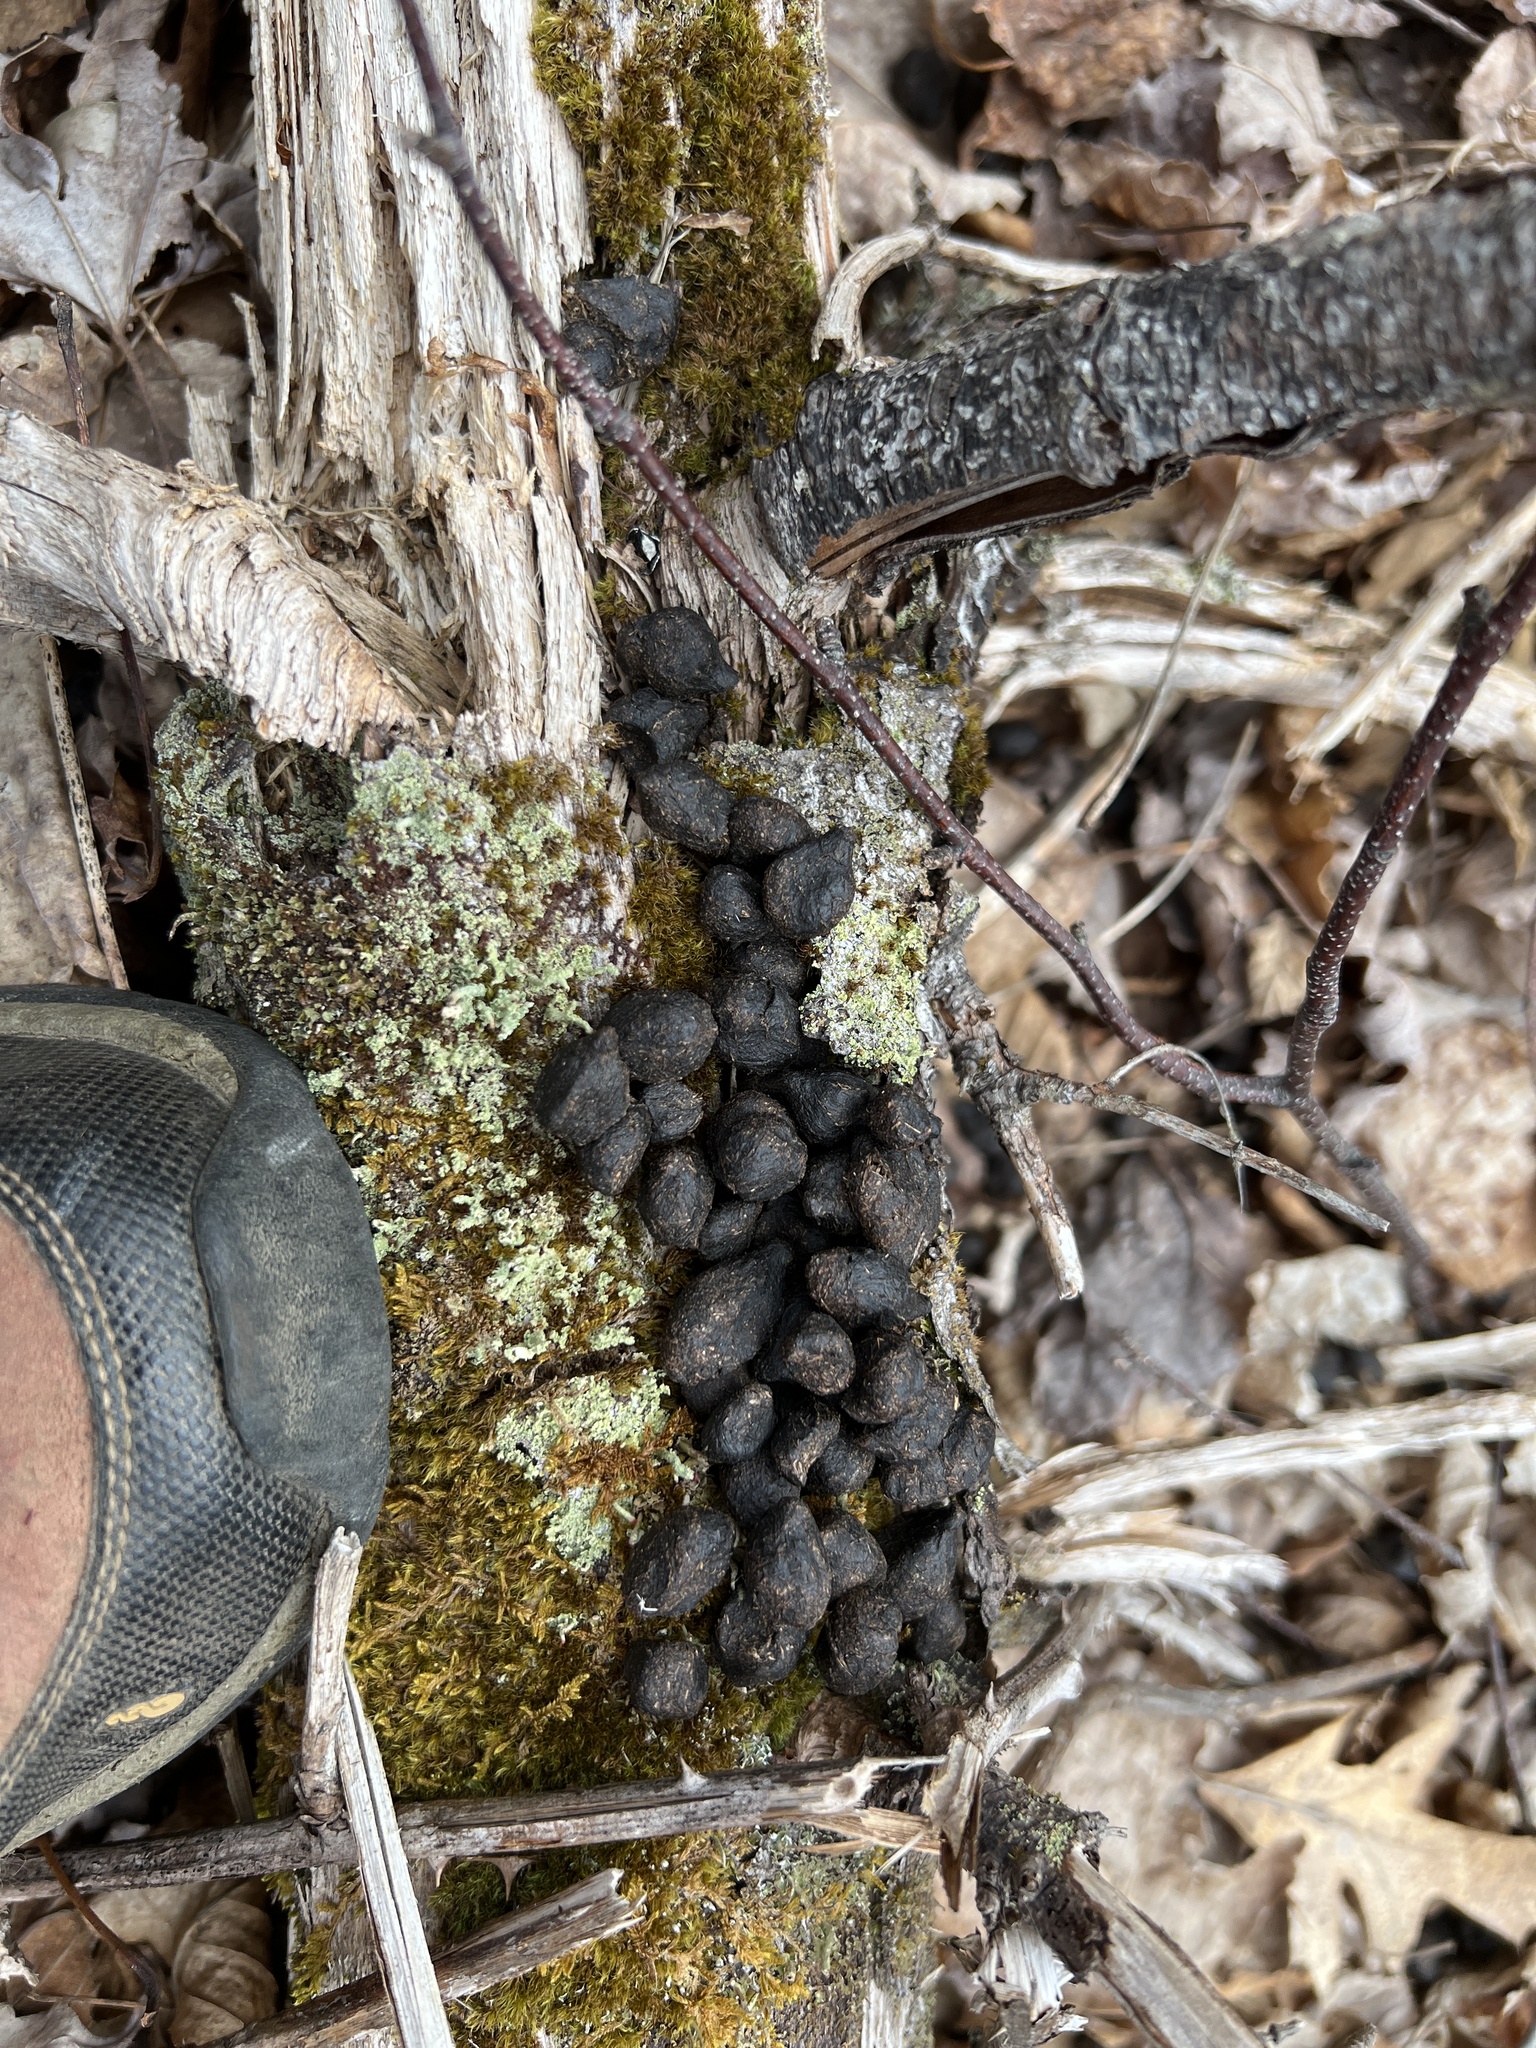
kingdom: Animalia
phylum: Chordata
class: Mammalia
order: Artiodactyla
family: Cervidae
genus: Odocoileus
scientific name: Odocoileus virginianus
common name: White-tailed deer
